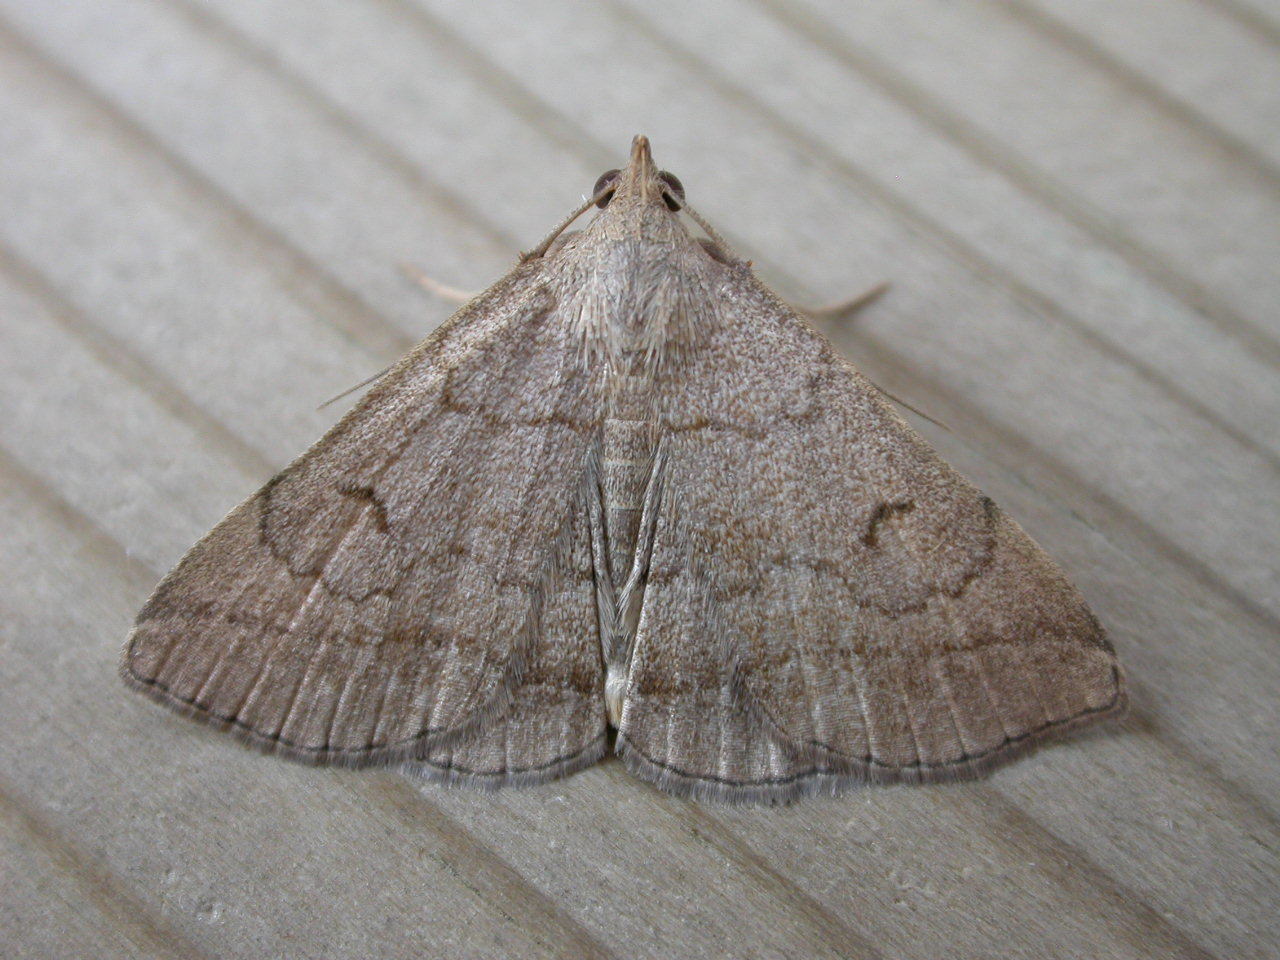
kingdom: Animalia
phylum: Arthropoda
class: Insecta
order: Lepidoptera
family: Erebidae
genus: Zanclognatha
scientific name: Zanclognatha lunalis
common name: Jubilee fan-foot
